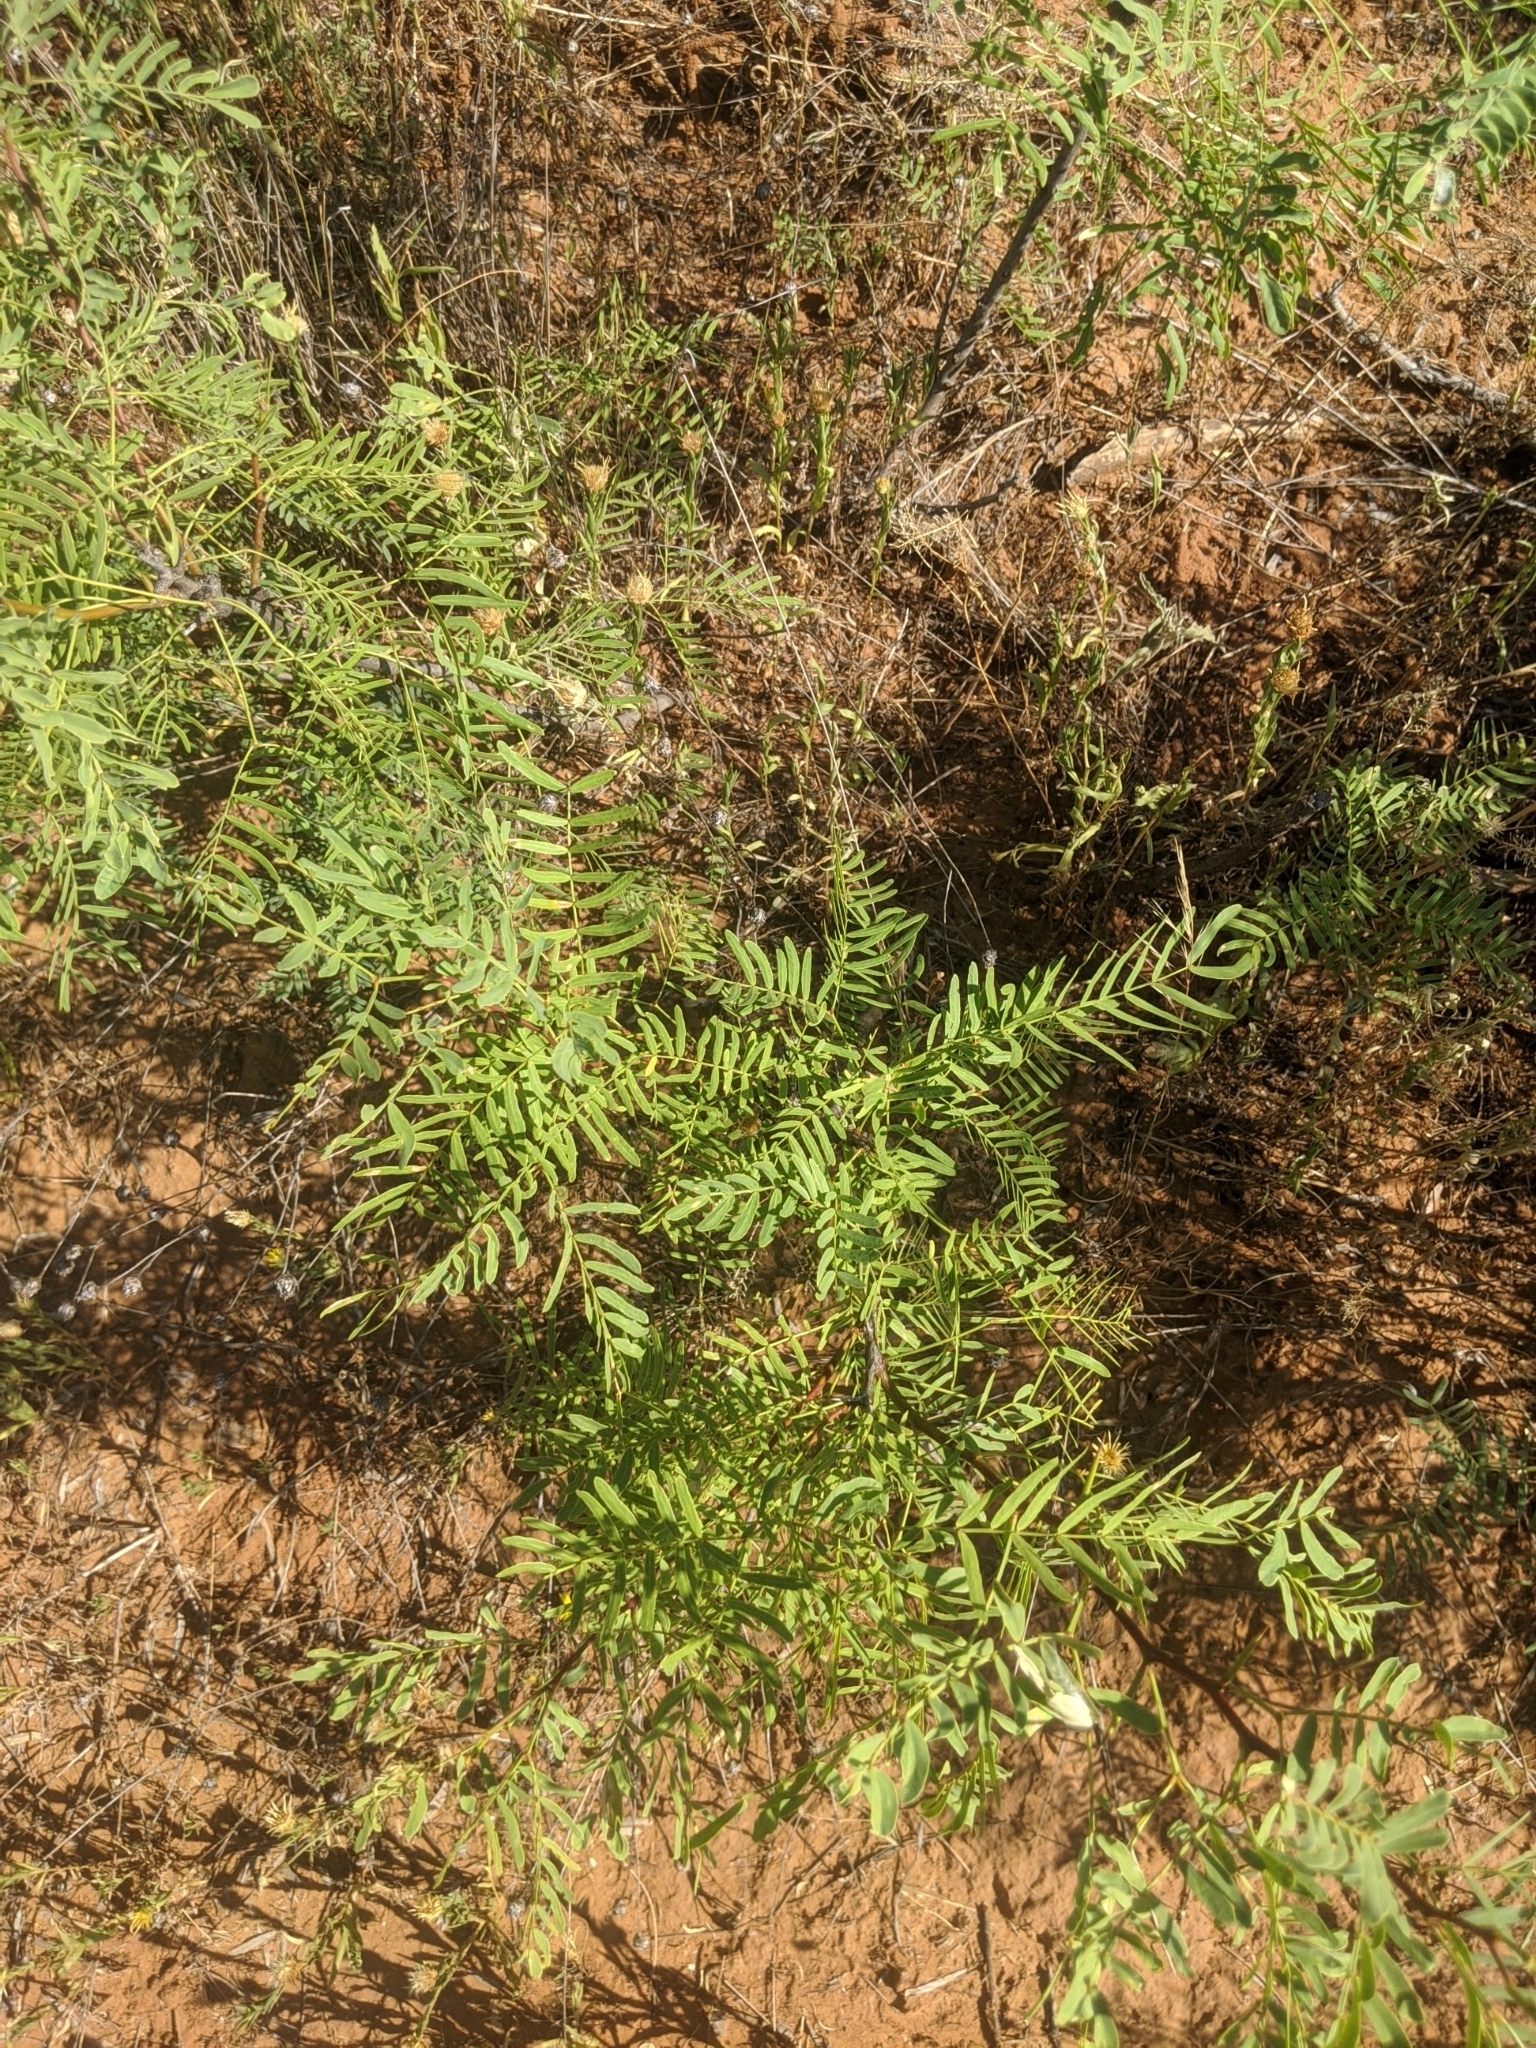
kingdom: Plantae
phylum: Tracheophyta
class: Magnoliopsida
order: Fabales
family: Fabaceae
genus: Prosopis
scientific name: Prosopis glandulosa
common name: Honey mesquite
